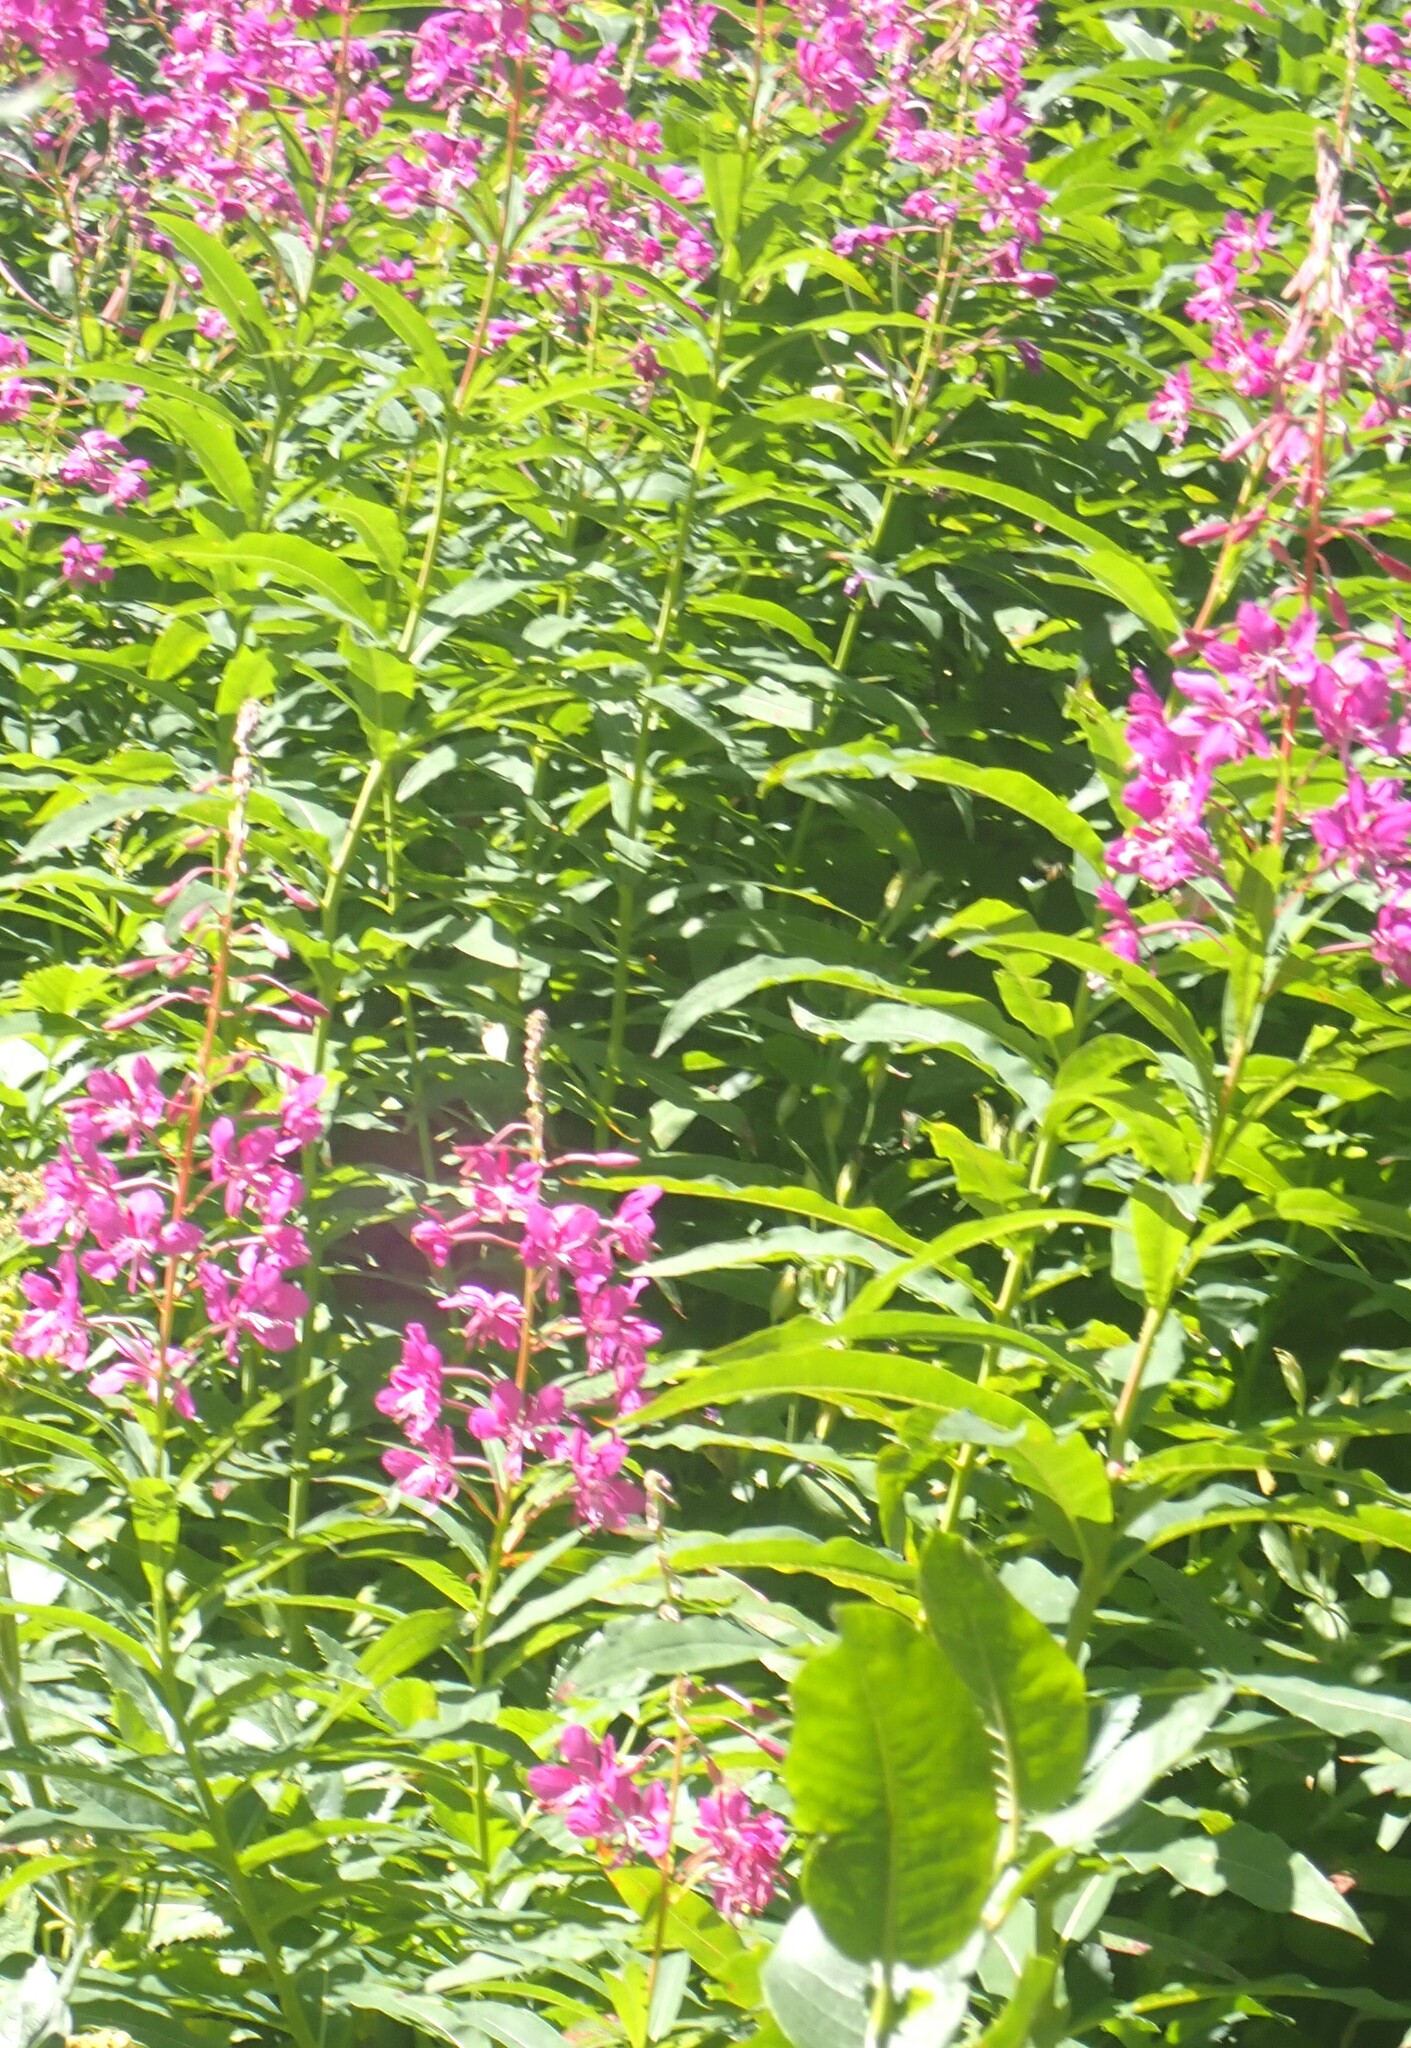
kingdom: Plantae
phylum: Tracheophyta
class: Magnoliopsida
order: Myrtales
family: Onagraceae
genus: Chamaenerion
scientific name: Chamaenerion angustifolium
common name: Fireweed
